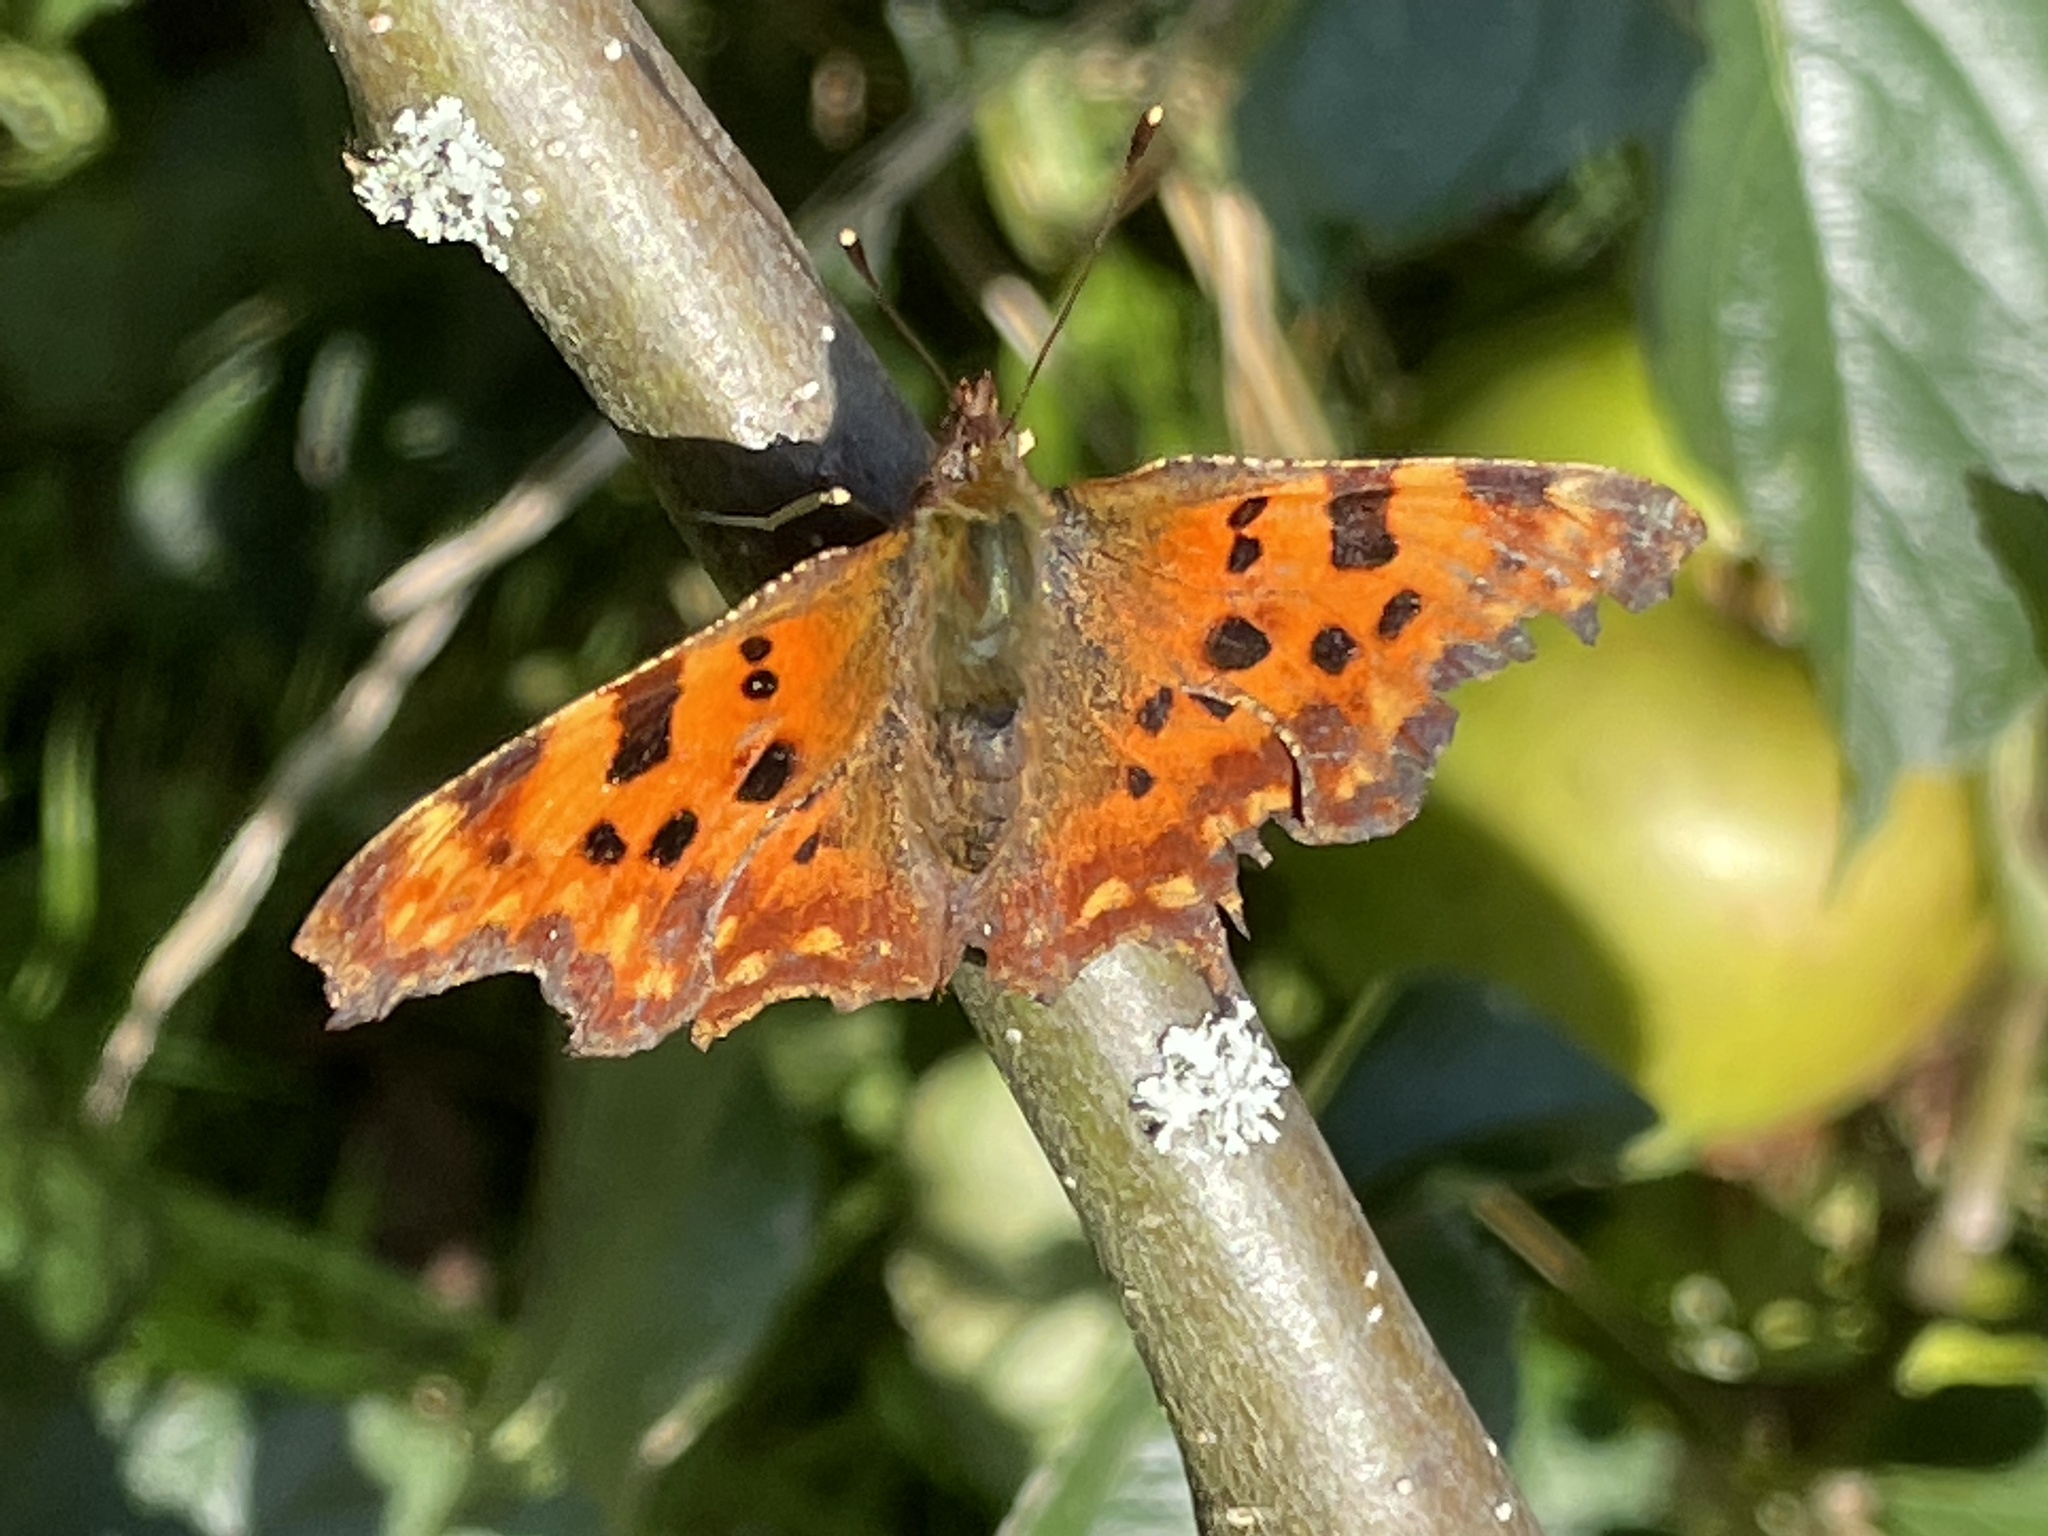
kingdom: Animalia
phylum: Arthropoda
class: Insecta
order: Lepidoptera
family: Nymphalidae
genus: Polygonia
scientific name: Polygonia c-album
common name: Comma
